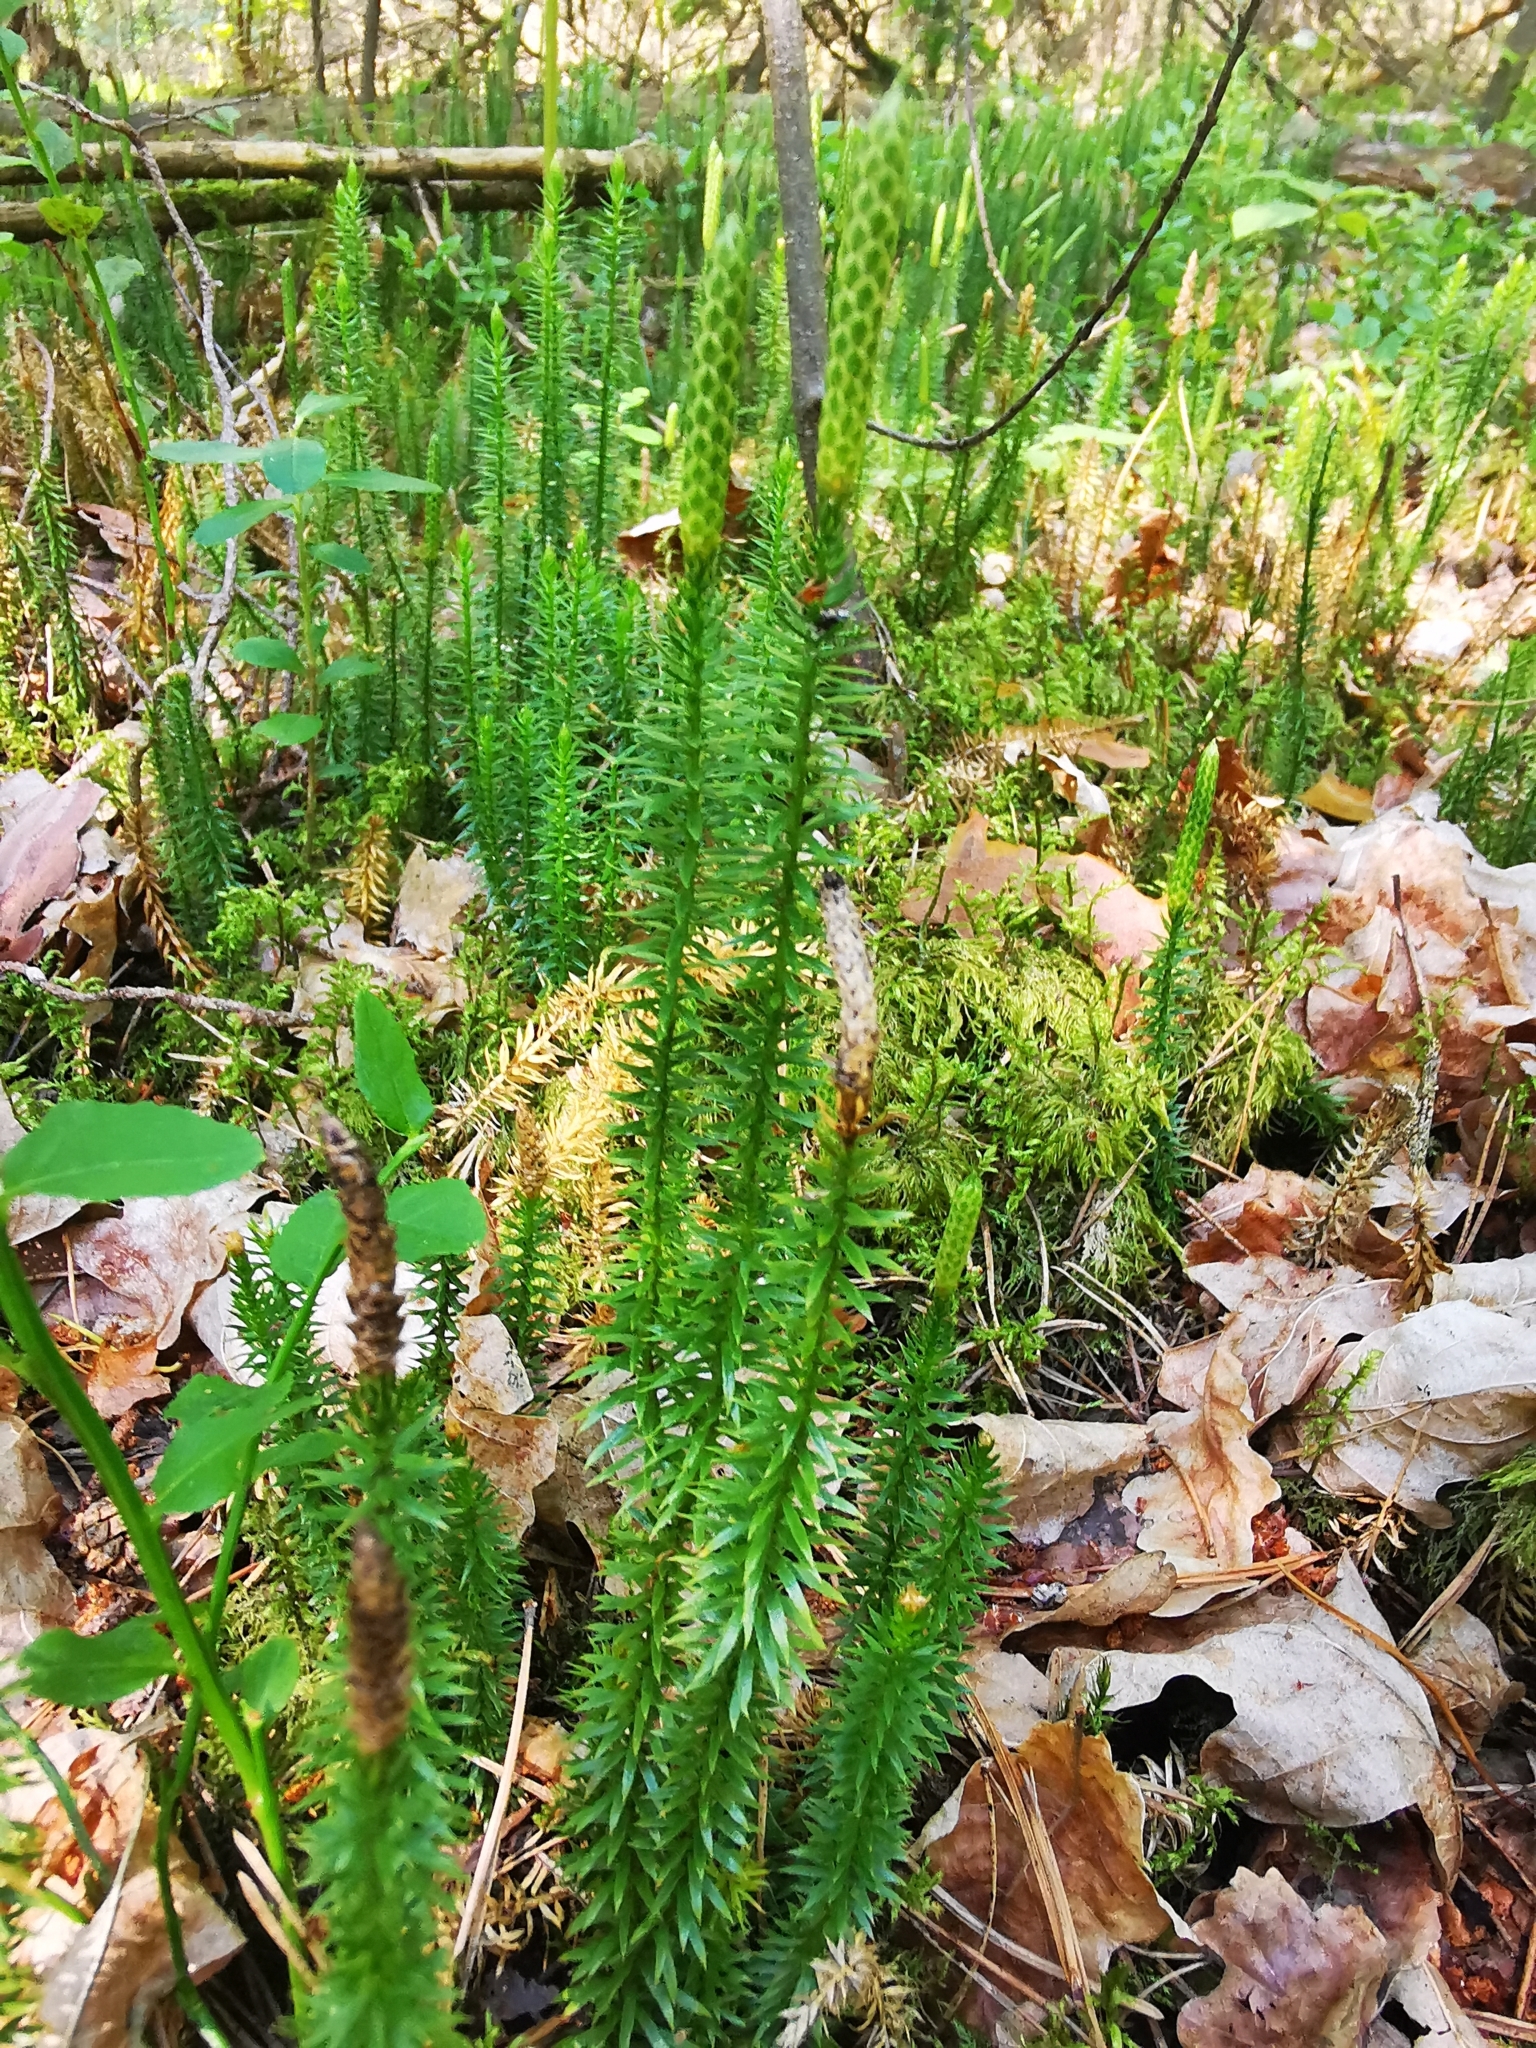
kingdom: Plantae
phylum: Tracheophyta
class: Lycopodiopsida
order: Lycopodiales
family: Lycopodiaceae
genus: Spinulum
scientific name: Spinulum annotinum
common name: Interrupted club-moss
